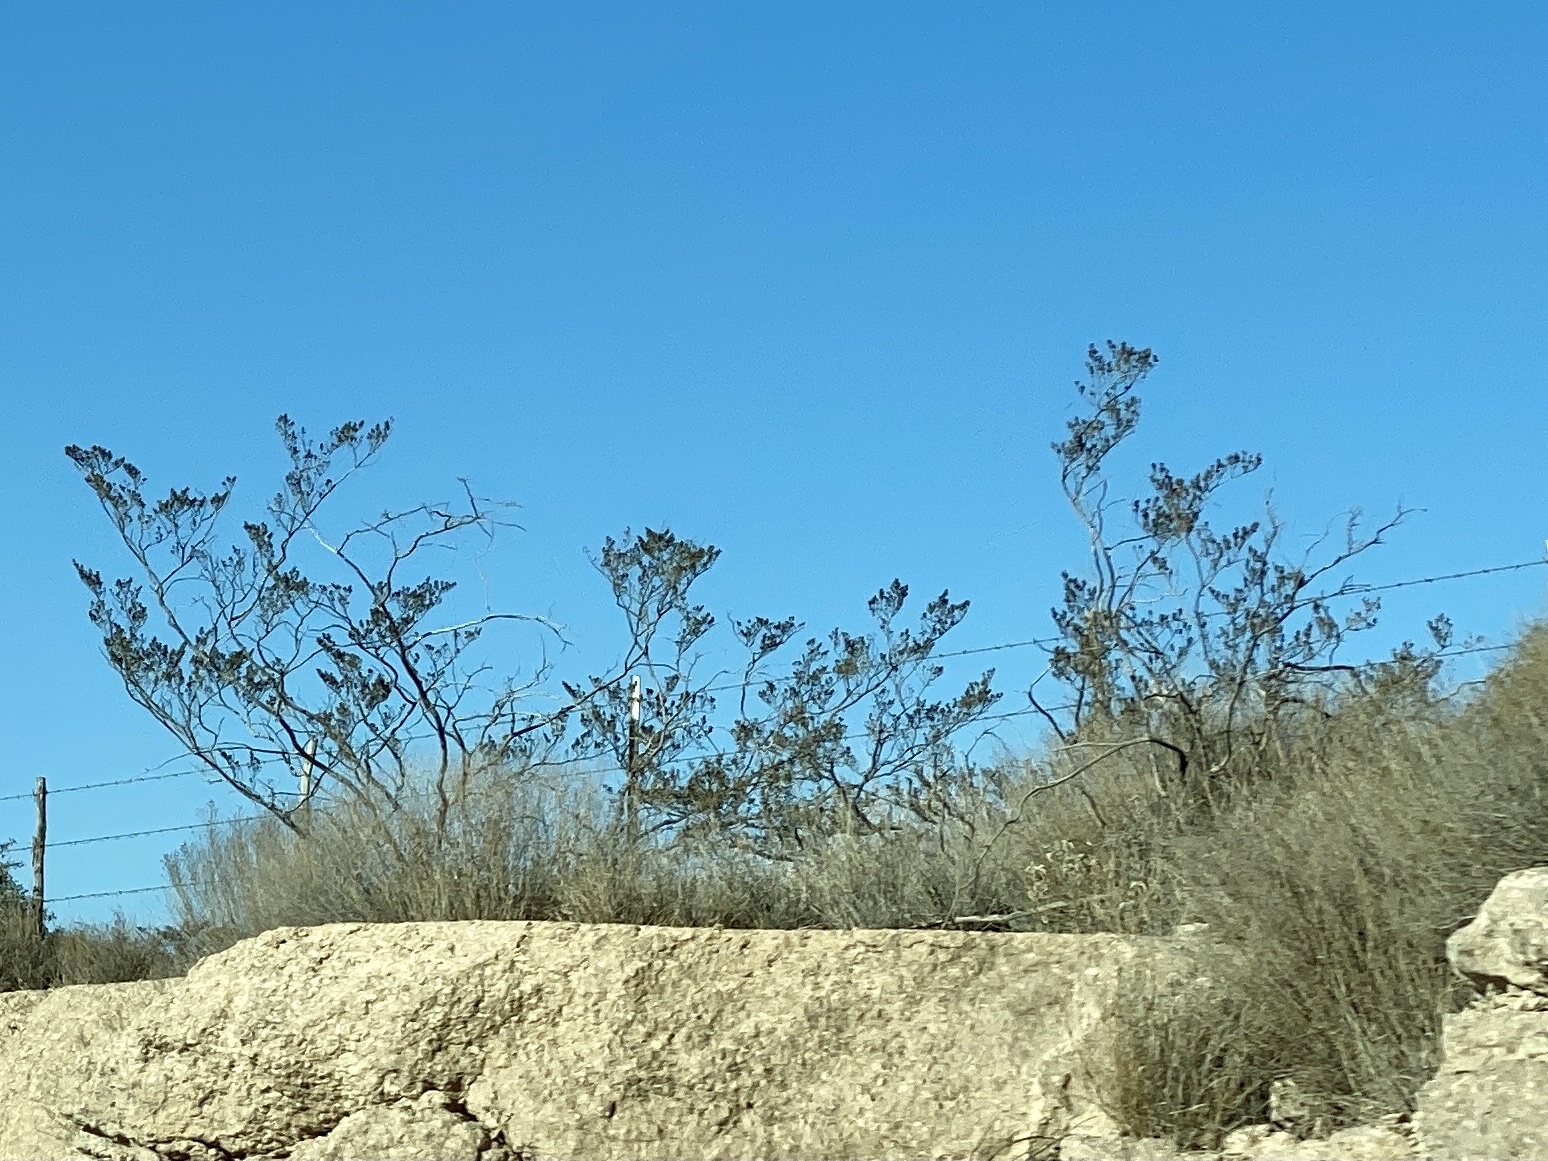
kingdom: Plantae
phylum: Tracheophyta
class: Magnoliopsida
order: Zygophyllales
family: Zygophyllaceae
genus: Larrea
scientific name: Larrea tridentata
